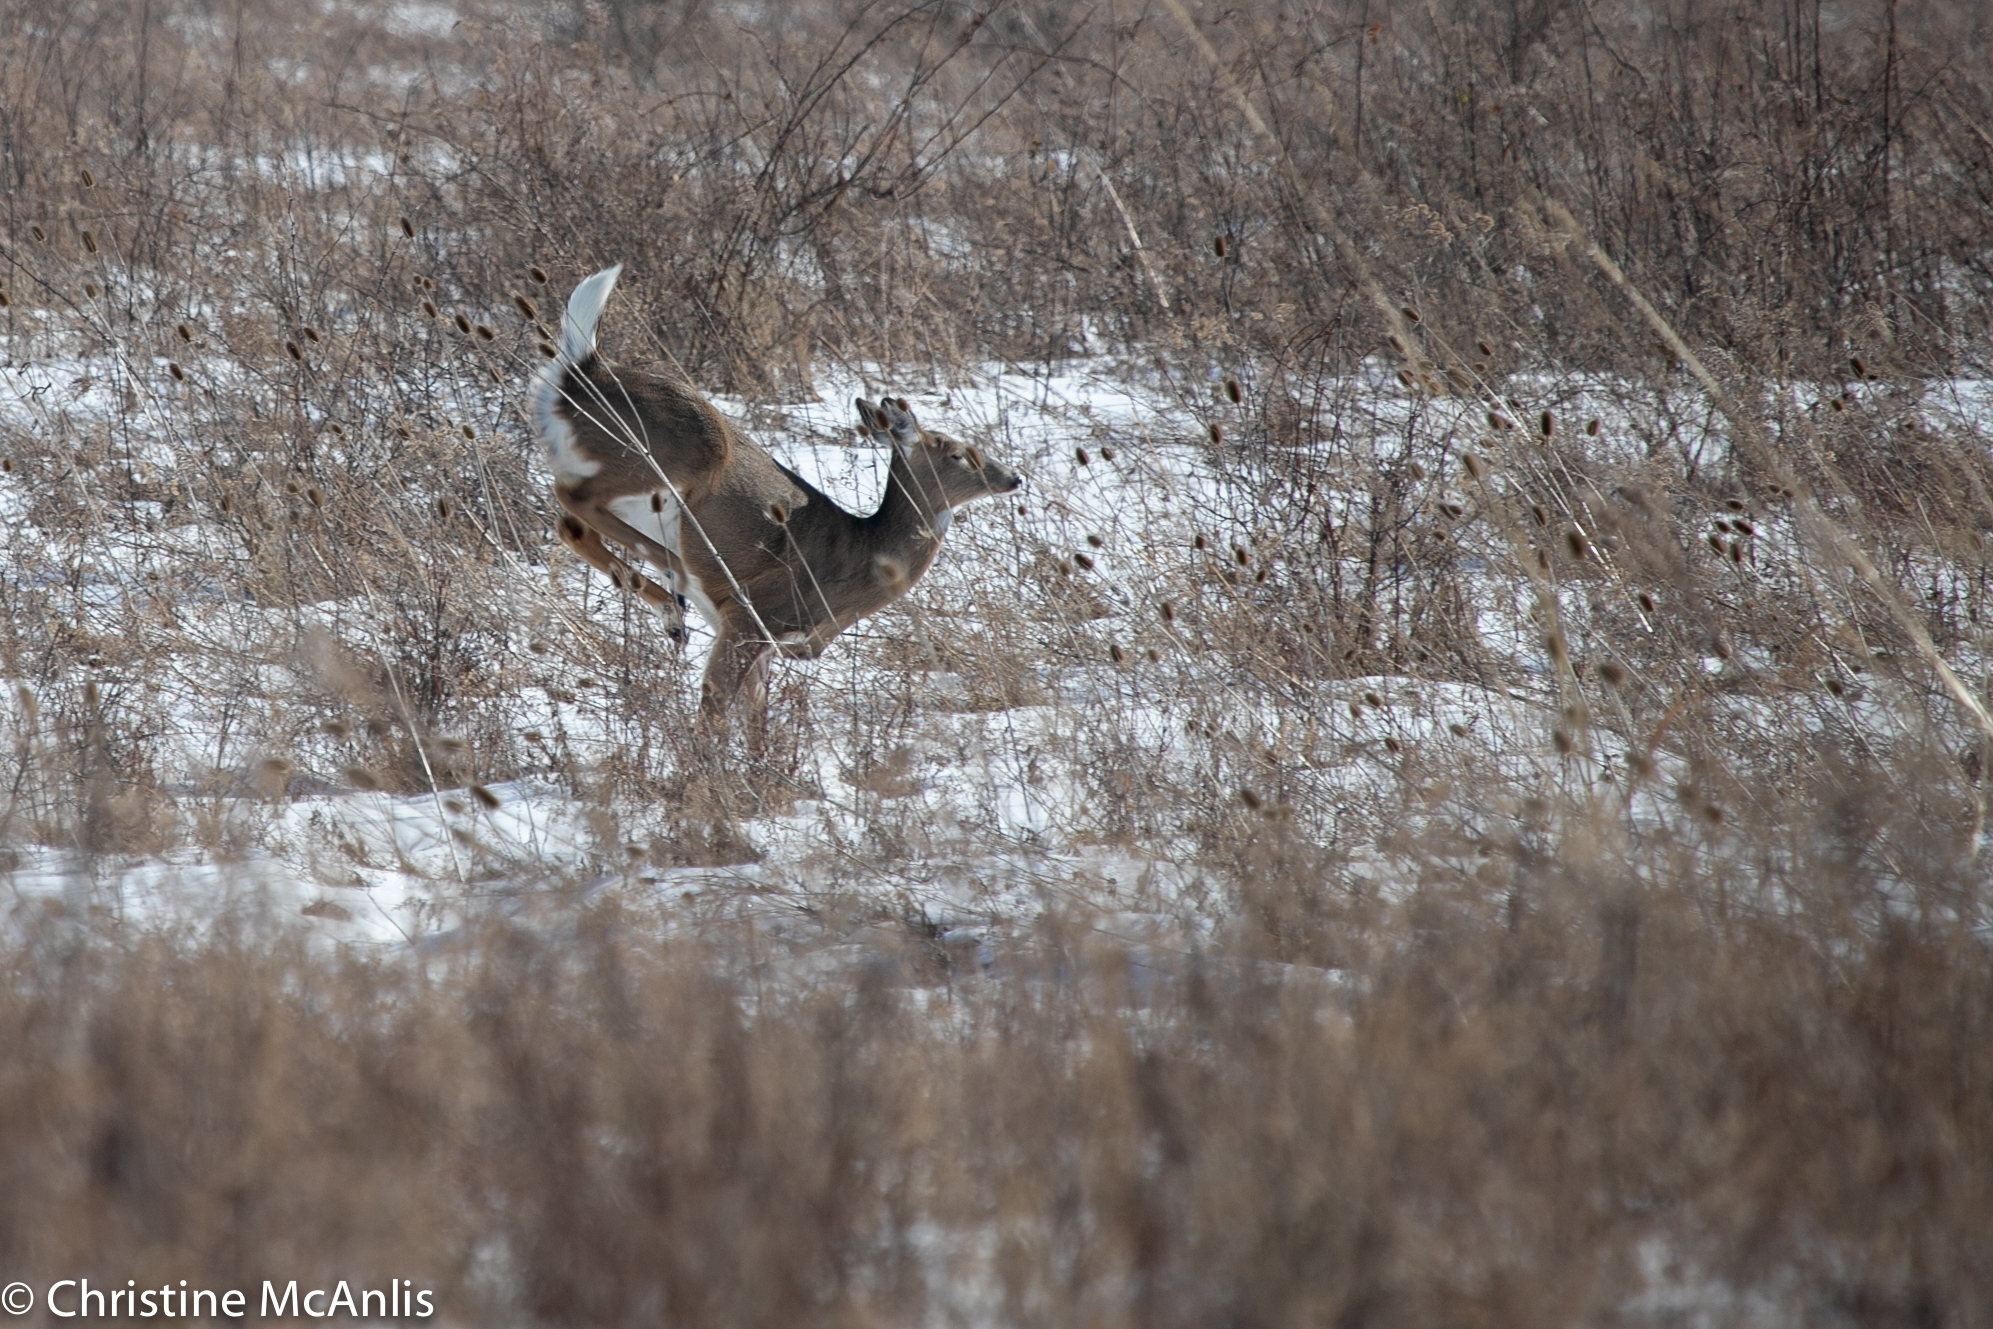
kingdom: Animalia
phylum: Chordata
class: Mammalia
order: Artiodactyla
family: Cervidae
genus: Odocoileus
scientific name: Odocoileus virginianus
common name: White-tailed deer
